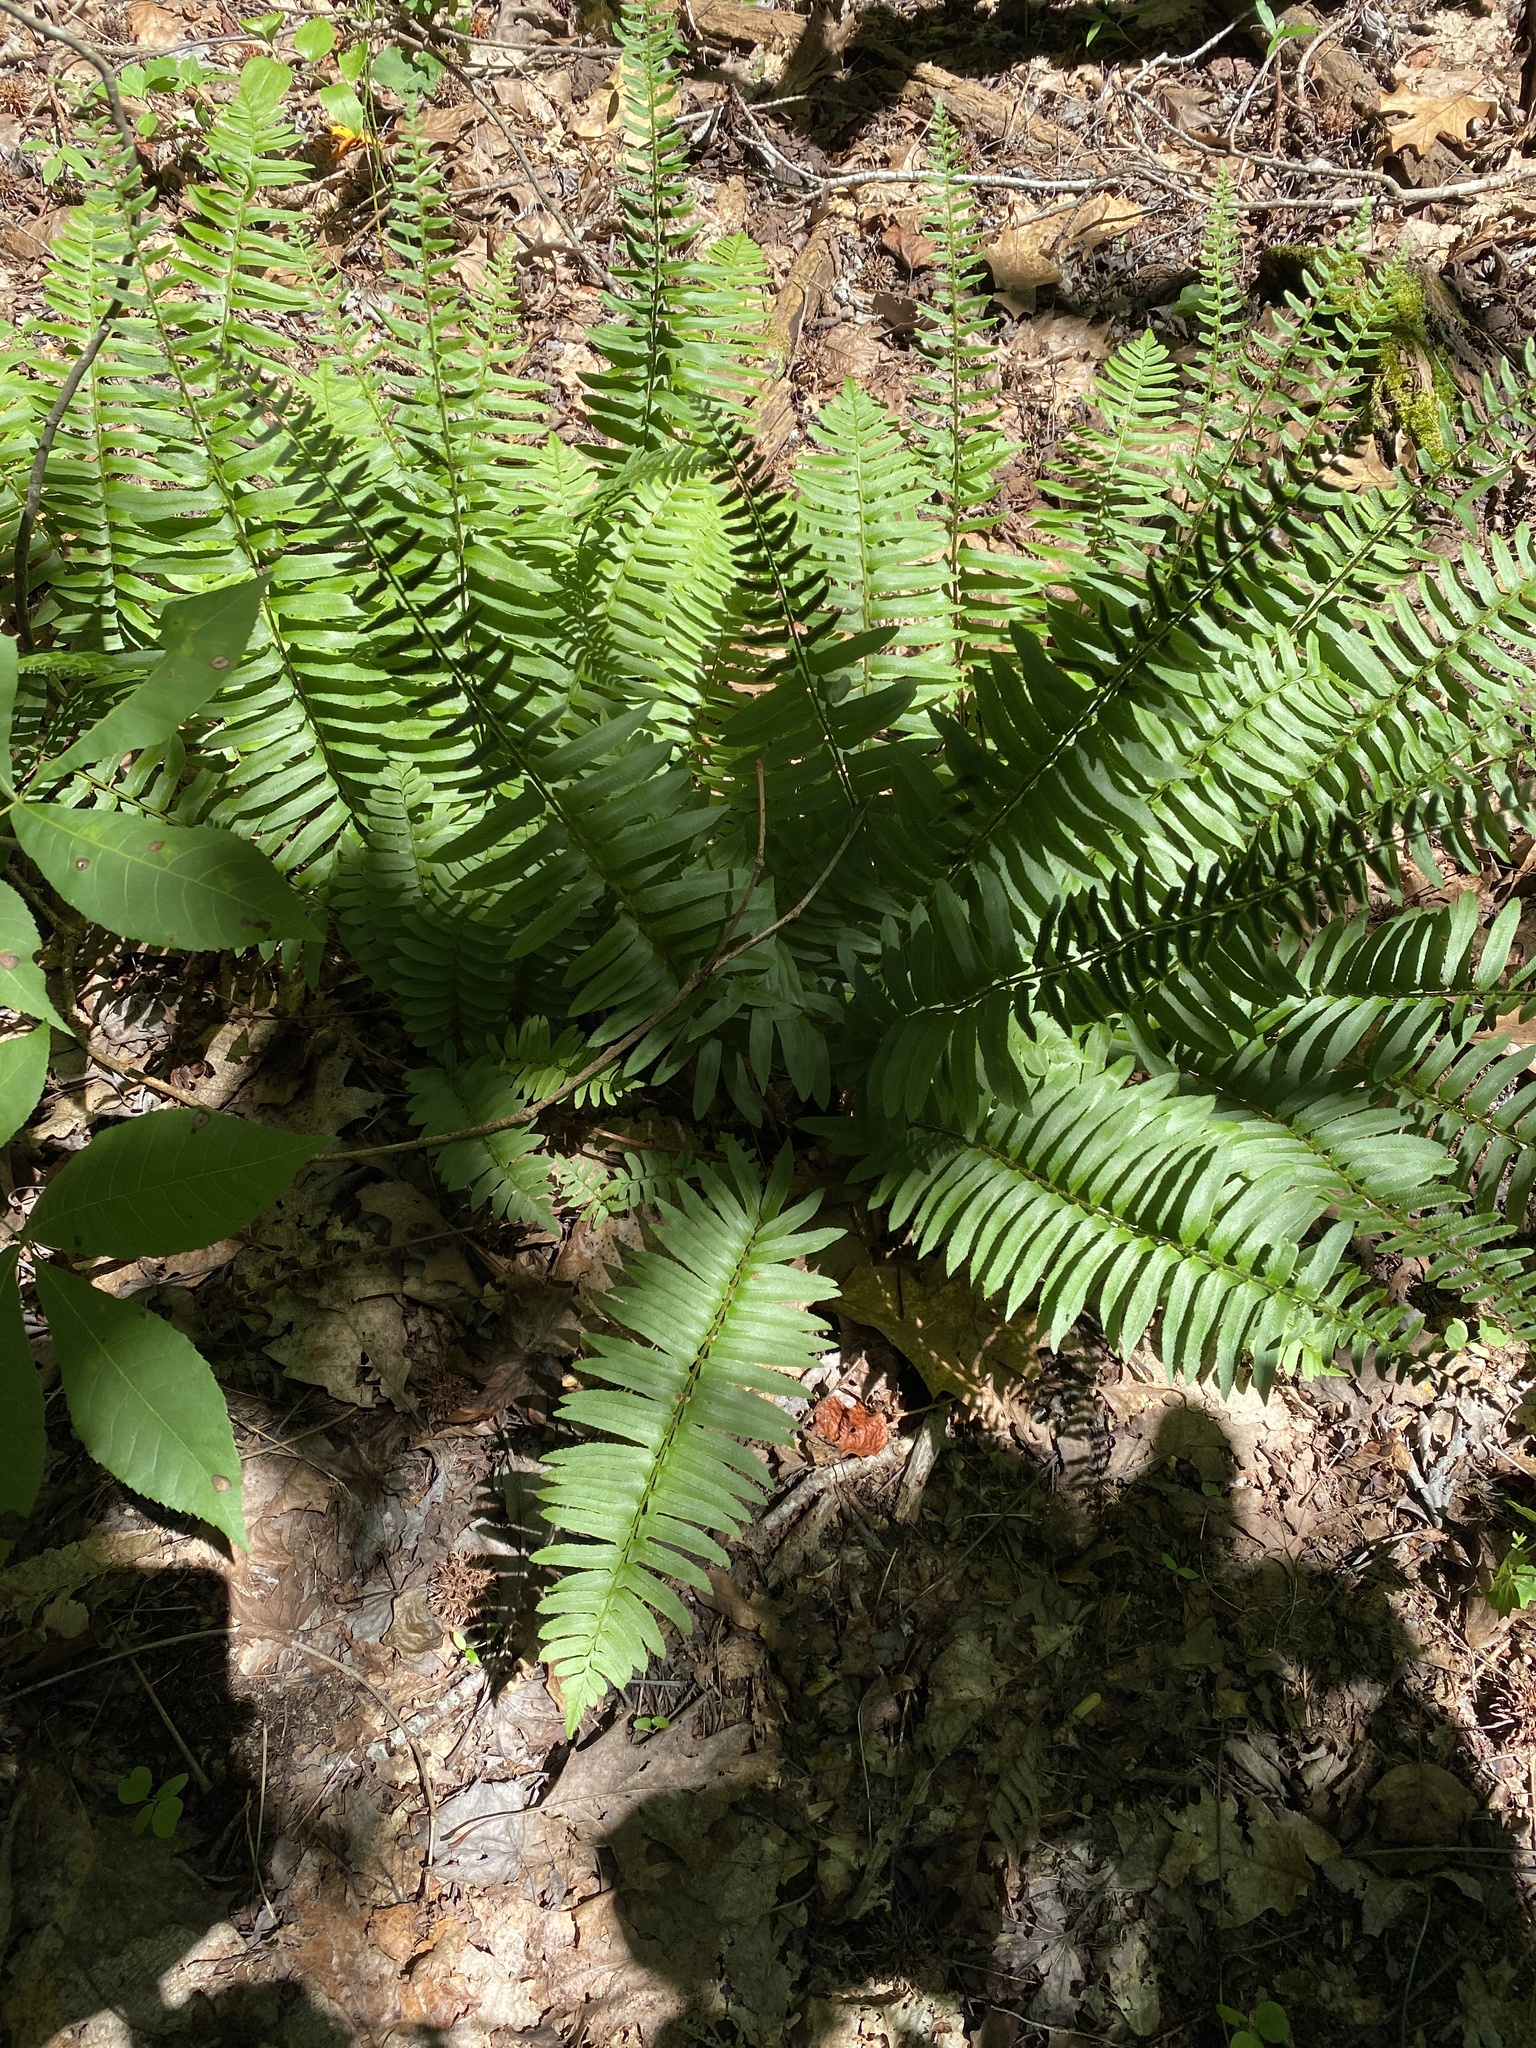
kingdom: Plantae
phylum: Tracheophyta
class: Polypodiopsida
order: Polypodiales
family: Dryopteridaceae
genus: Polystichum
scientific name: Polystichum acrostichoides
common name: Christmas fern
